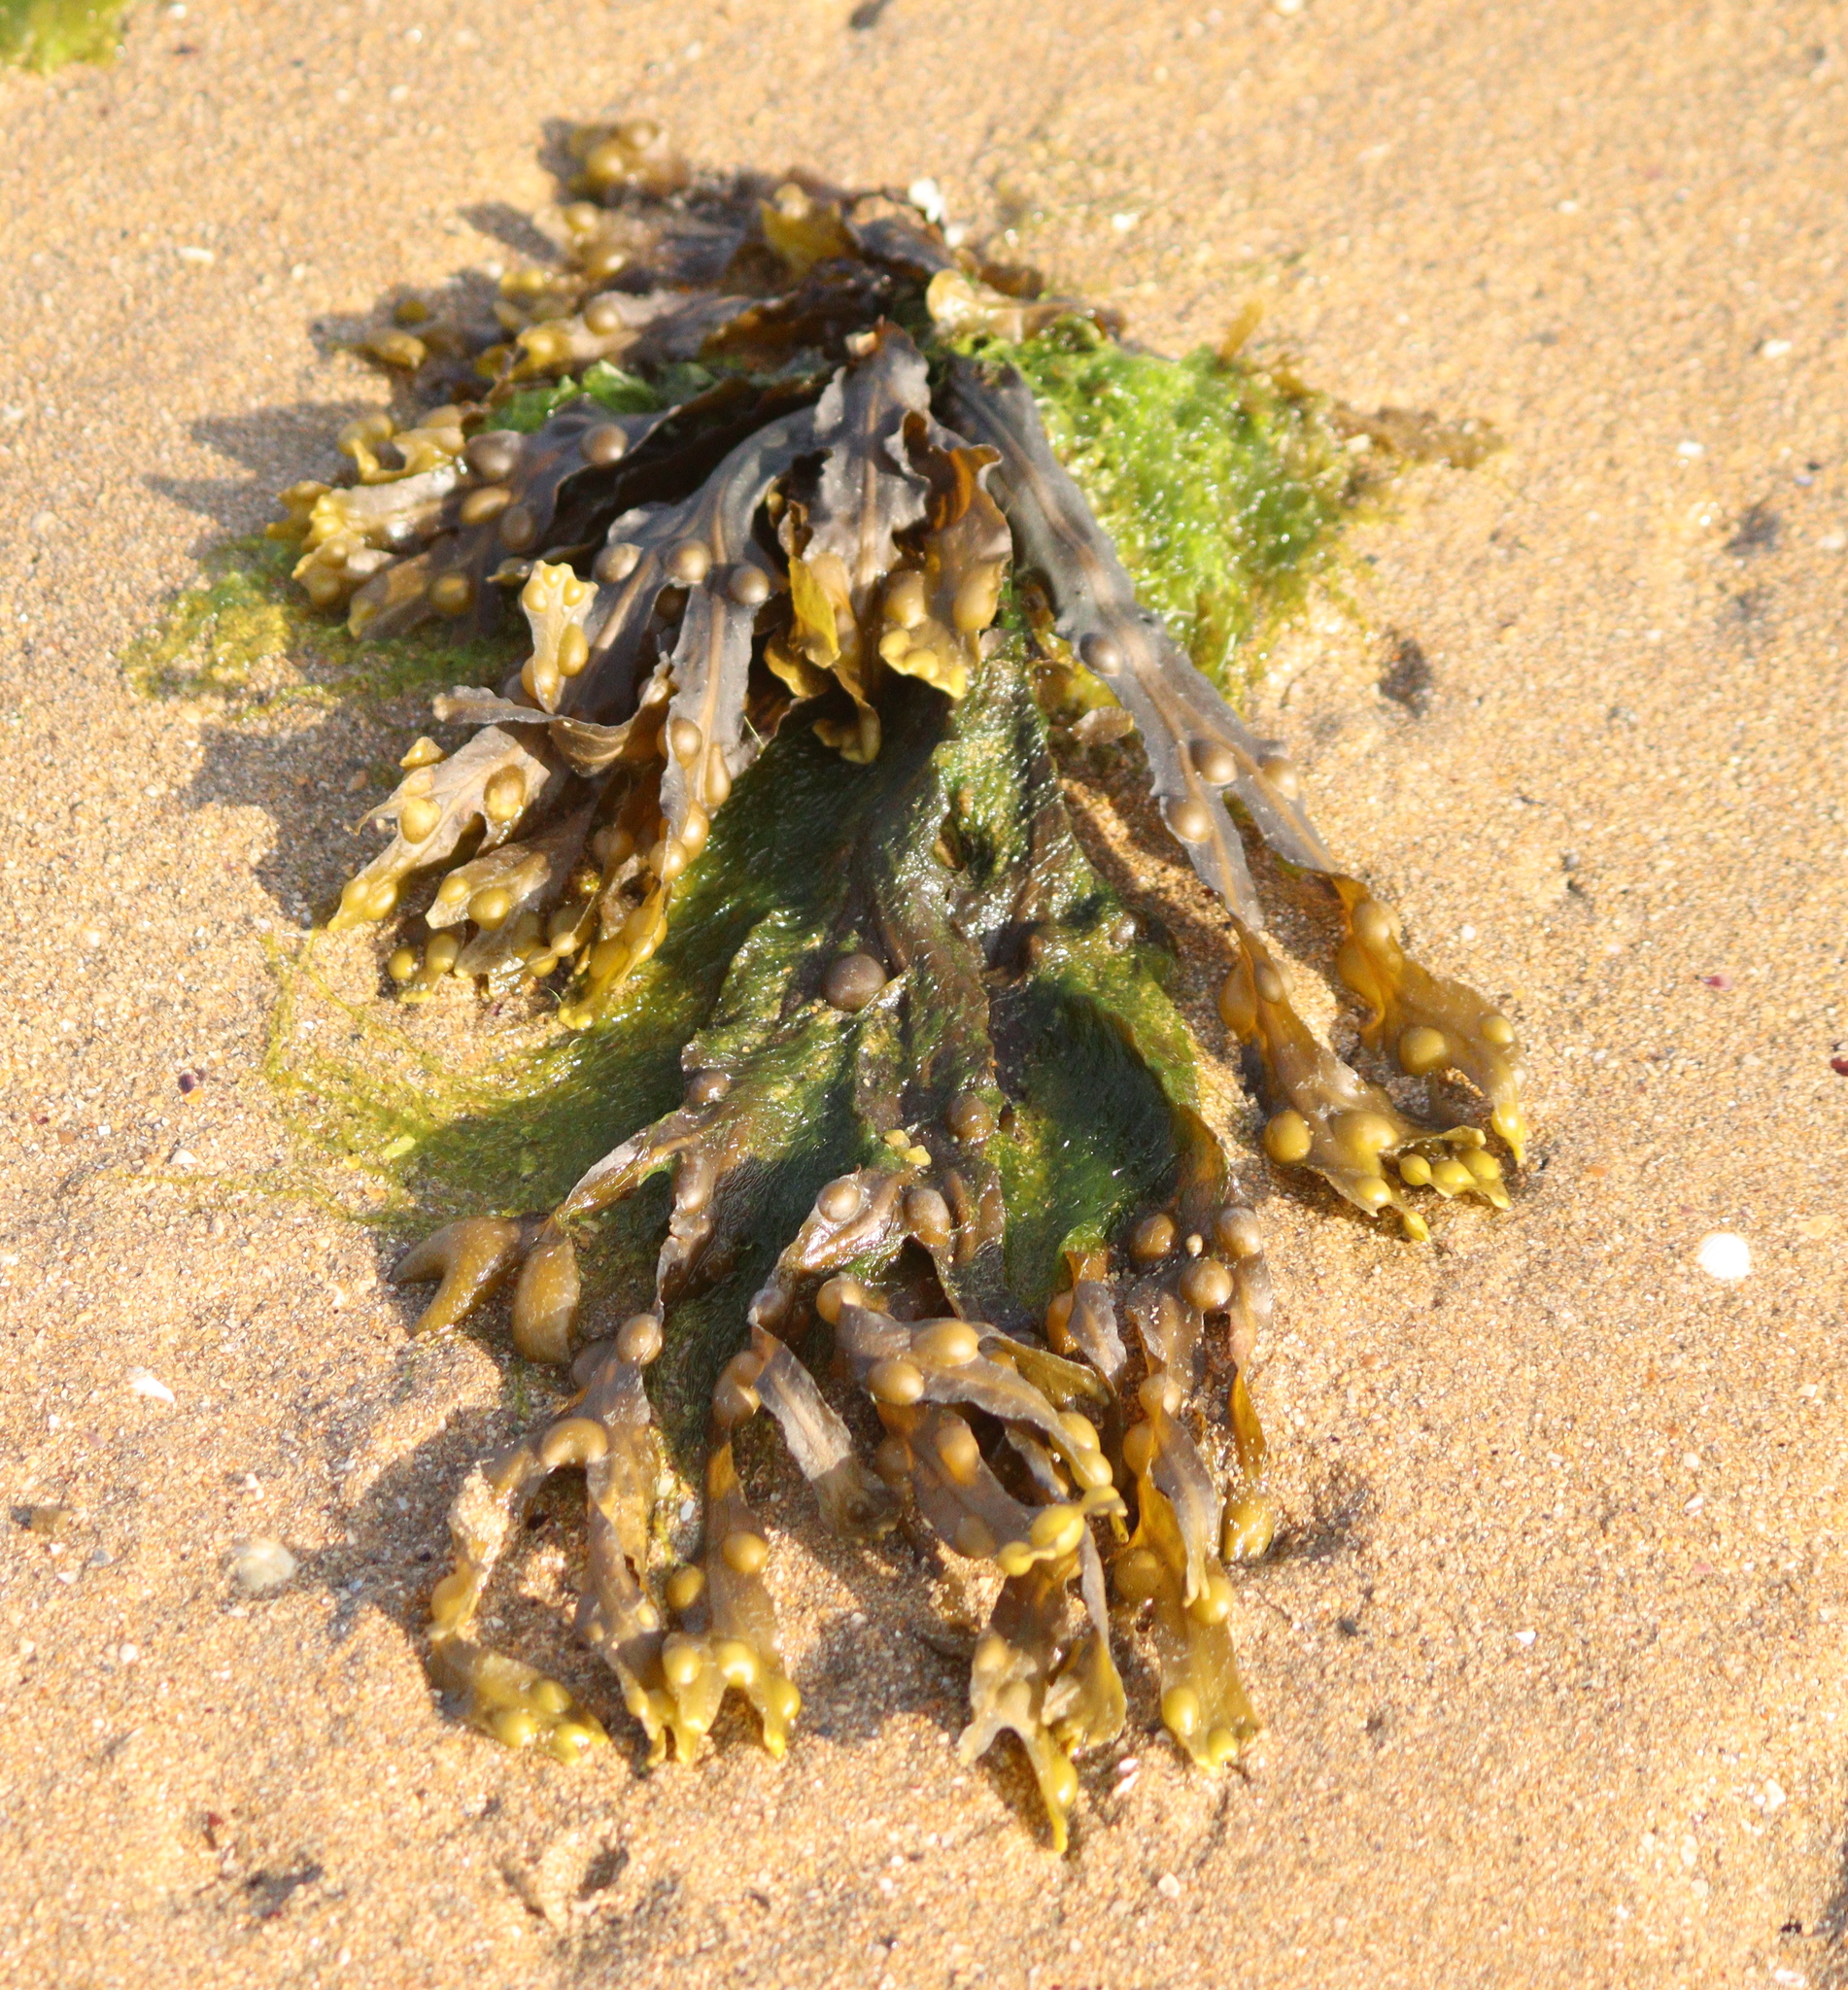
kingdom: Chromista
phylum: Ochrophyta
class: Phaeophyceae
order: Fucales
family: Fucaceae
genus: Fucus
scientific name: Fucus vesiculosus
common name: Bladder wrack
